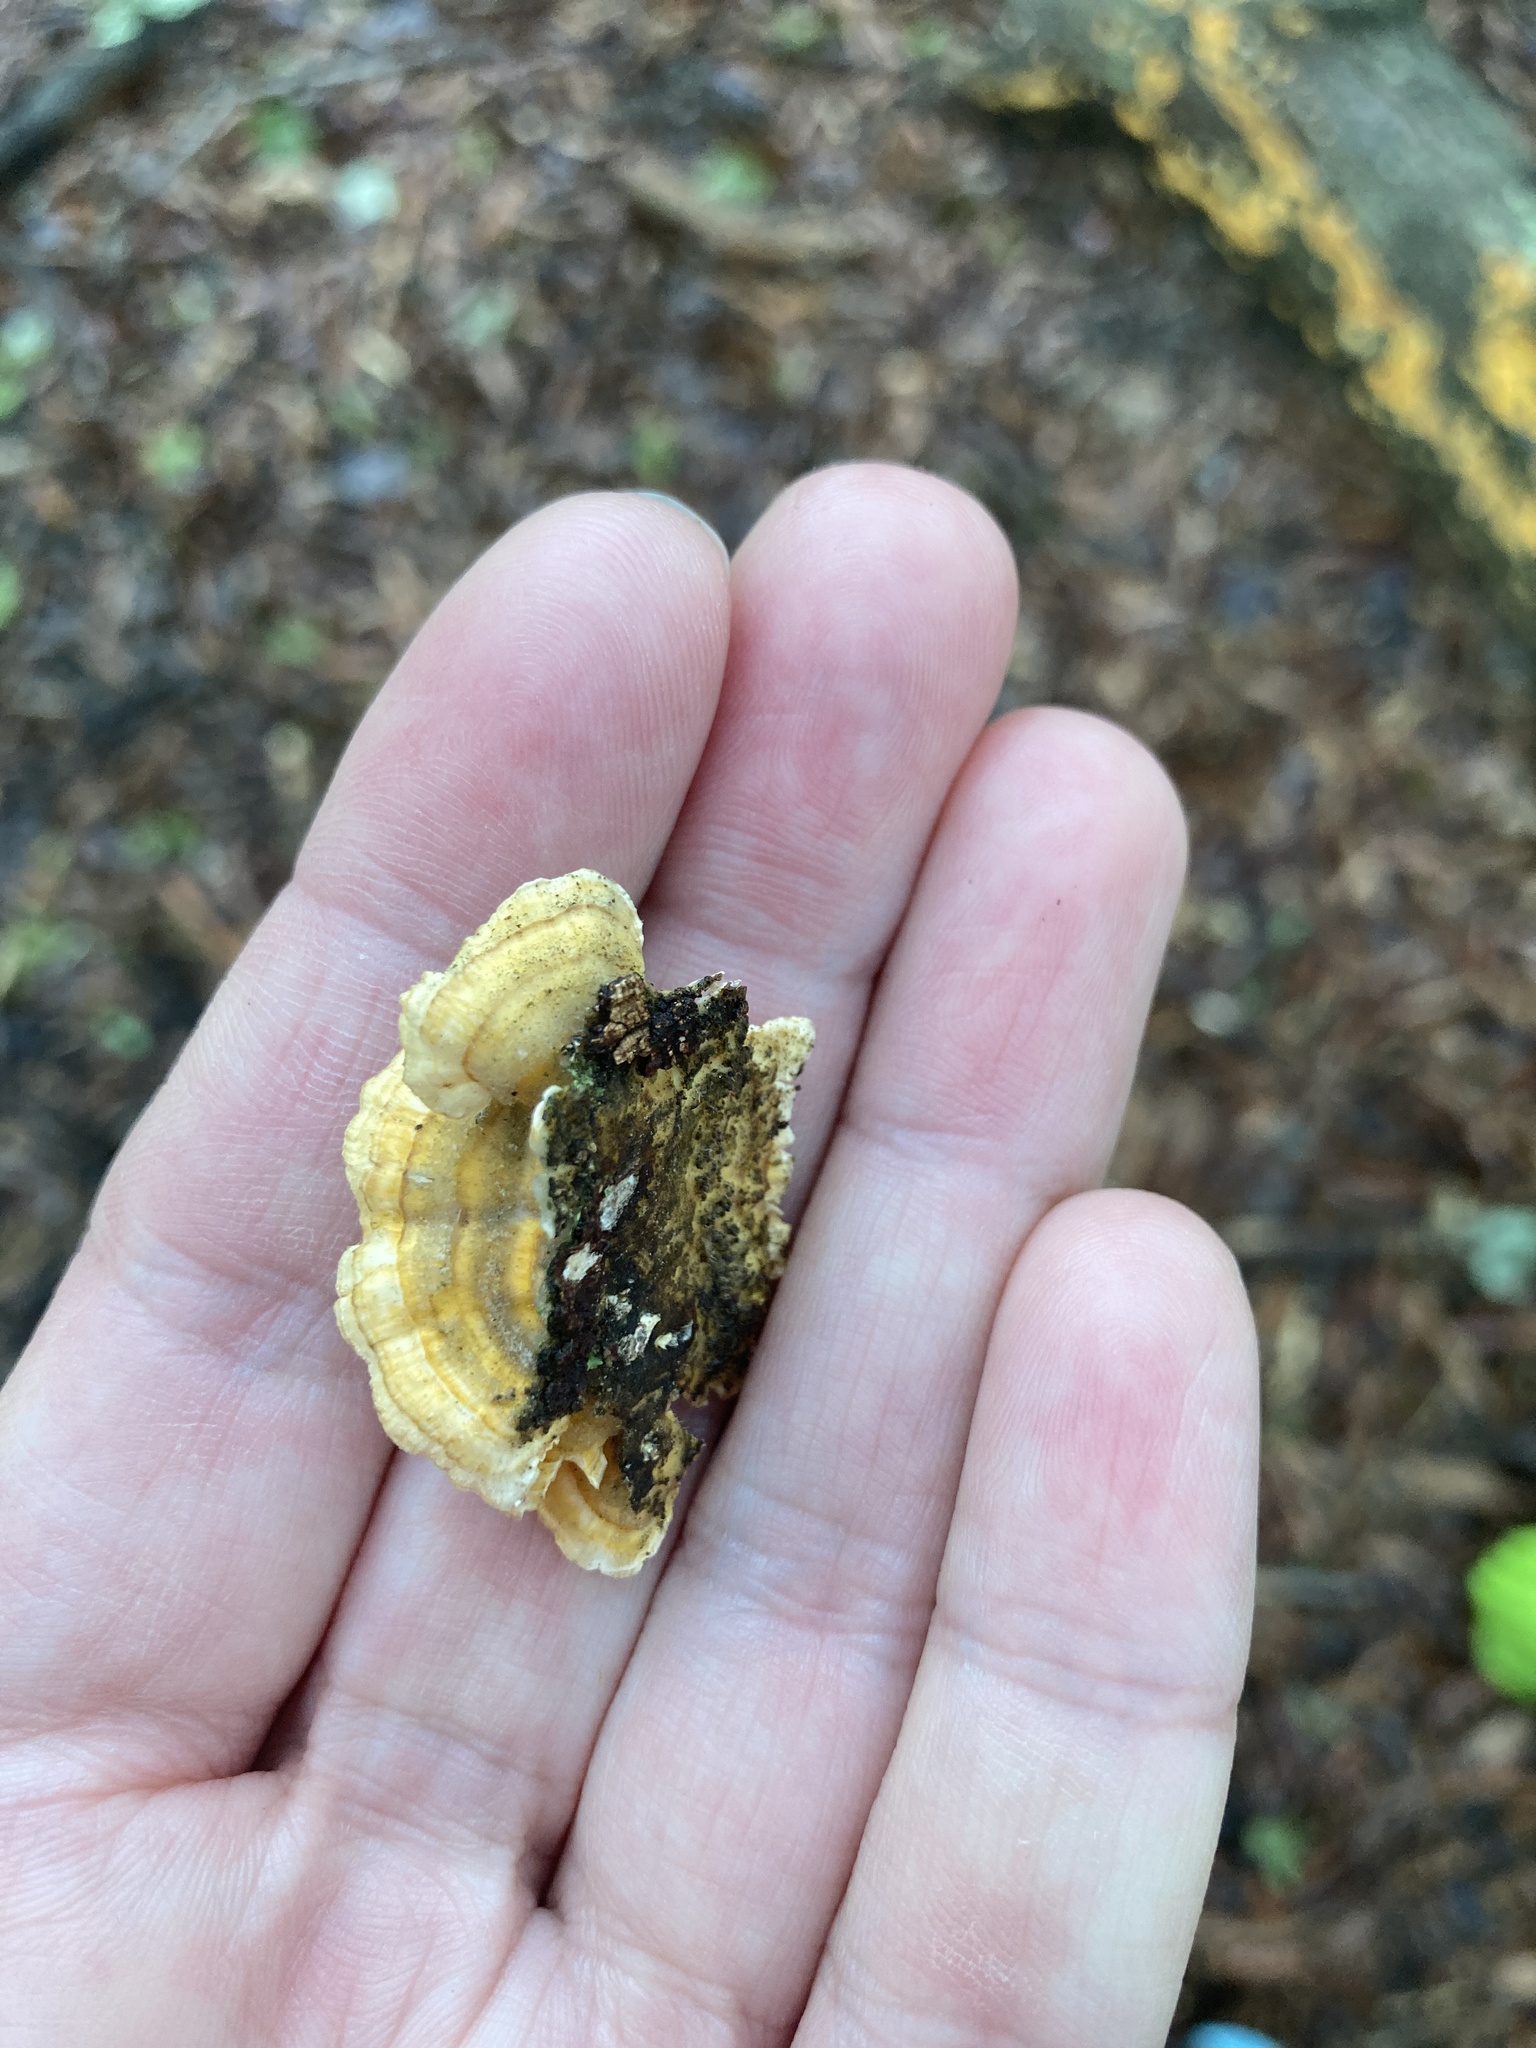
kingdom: Fungi
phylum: Basidiomycota
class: Agaricomycetes
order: Russulales
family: Stereaceae
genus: Stereum
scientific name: Stereum complicatum
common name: Crowded parchment
